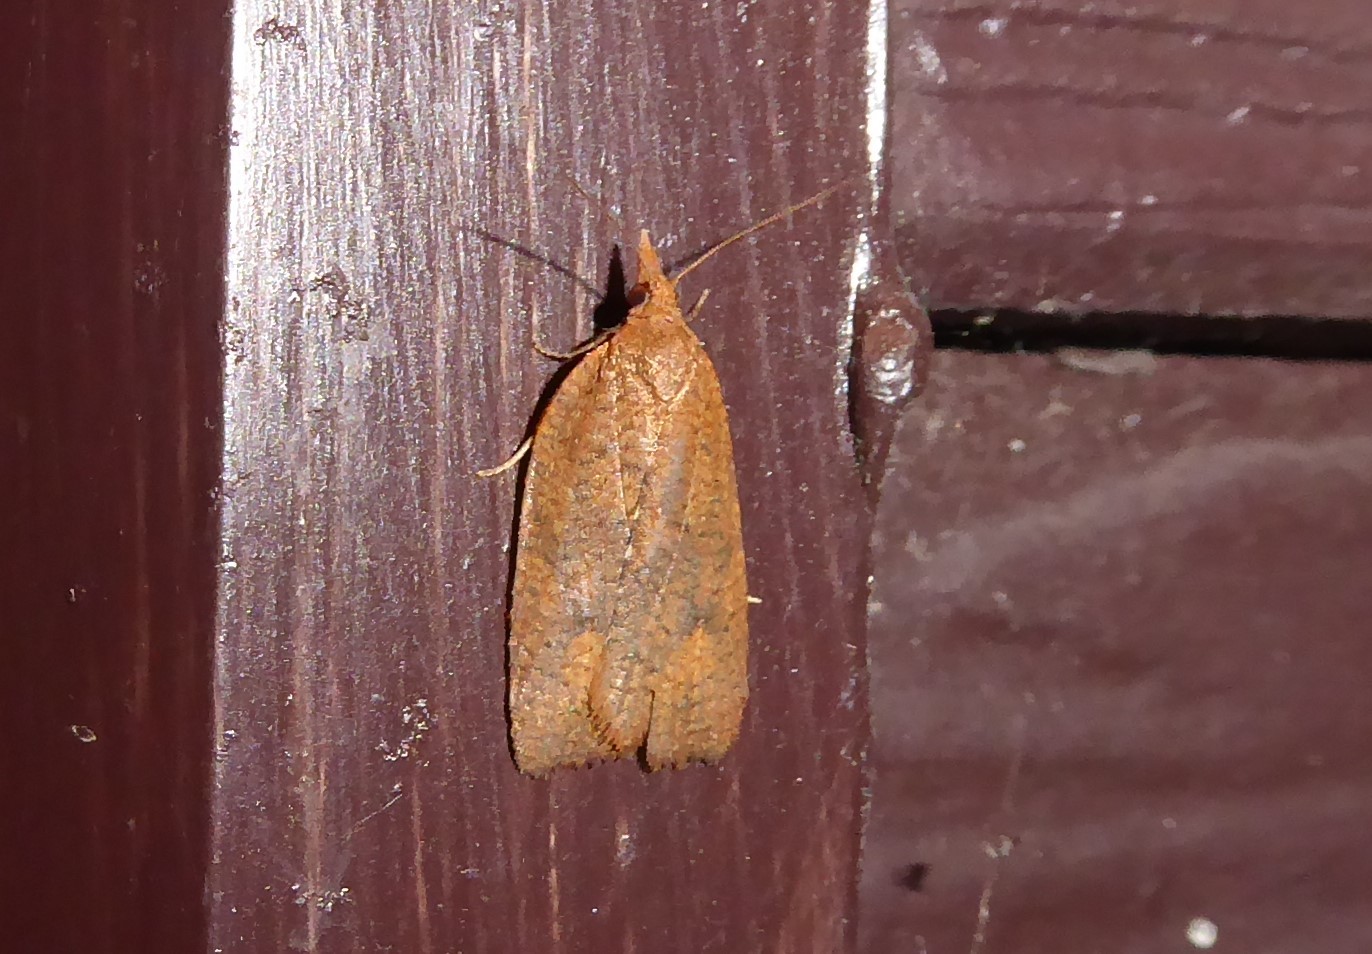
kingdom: Animalia
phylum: Arthropoda
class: Insecta
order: Lepidoptera
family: Tortricidae
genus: Planotortrix
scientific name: Planotortrix excessana
